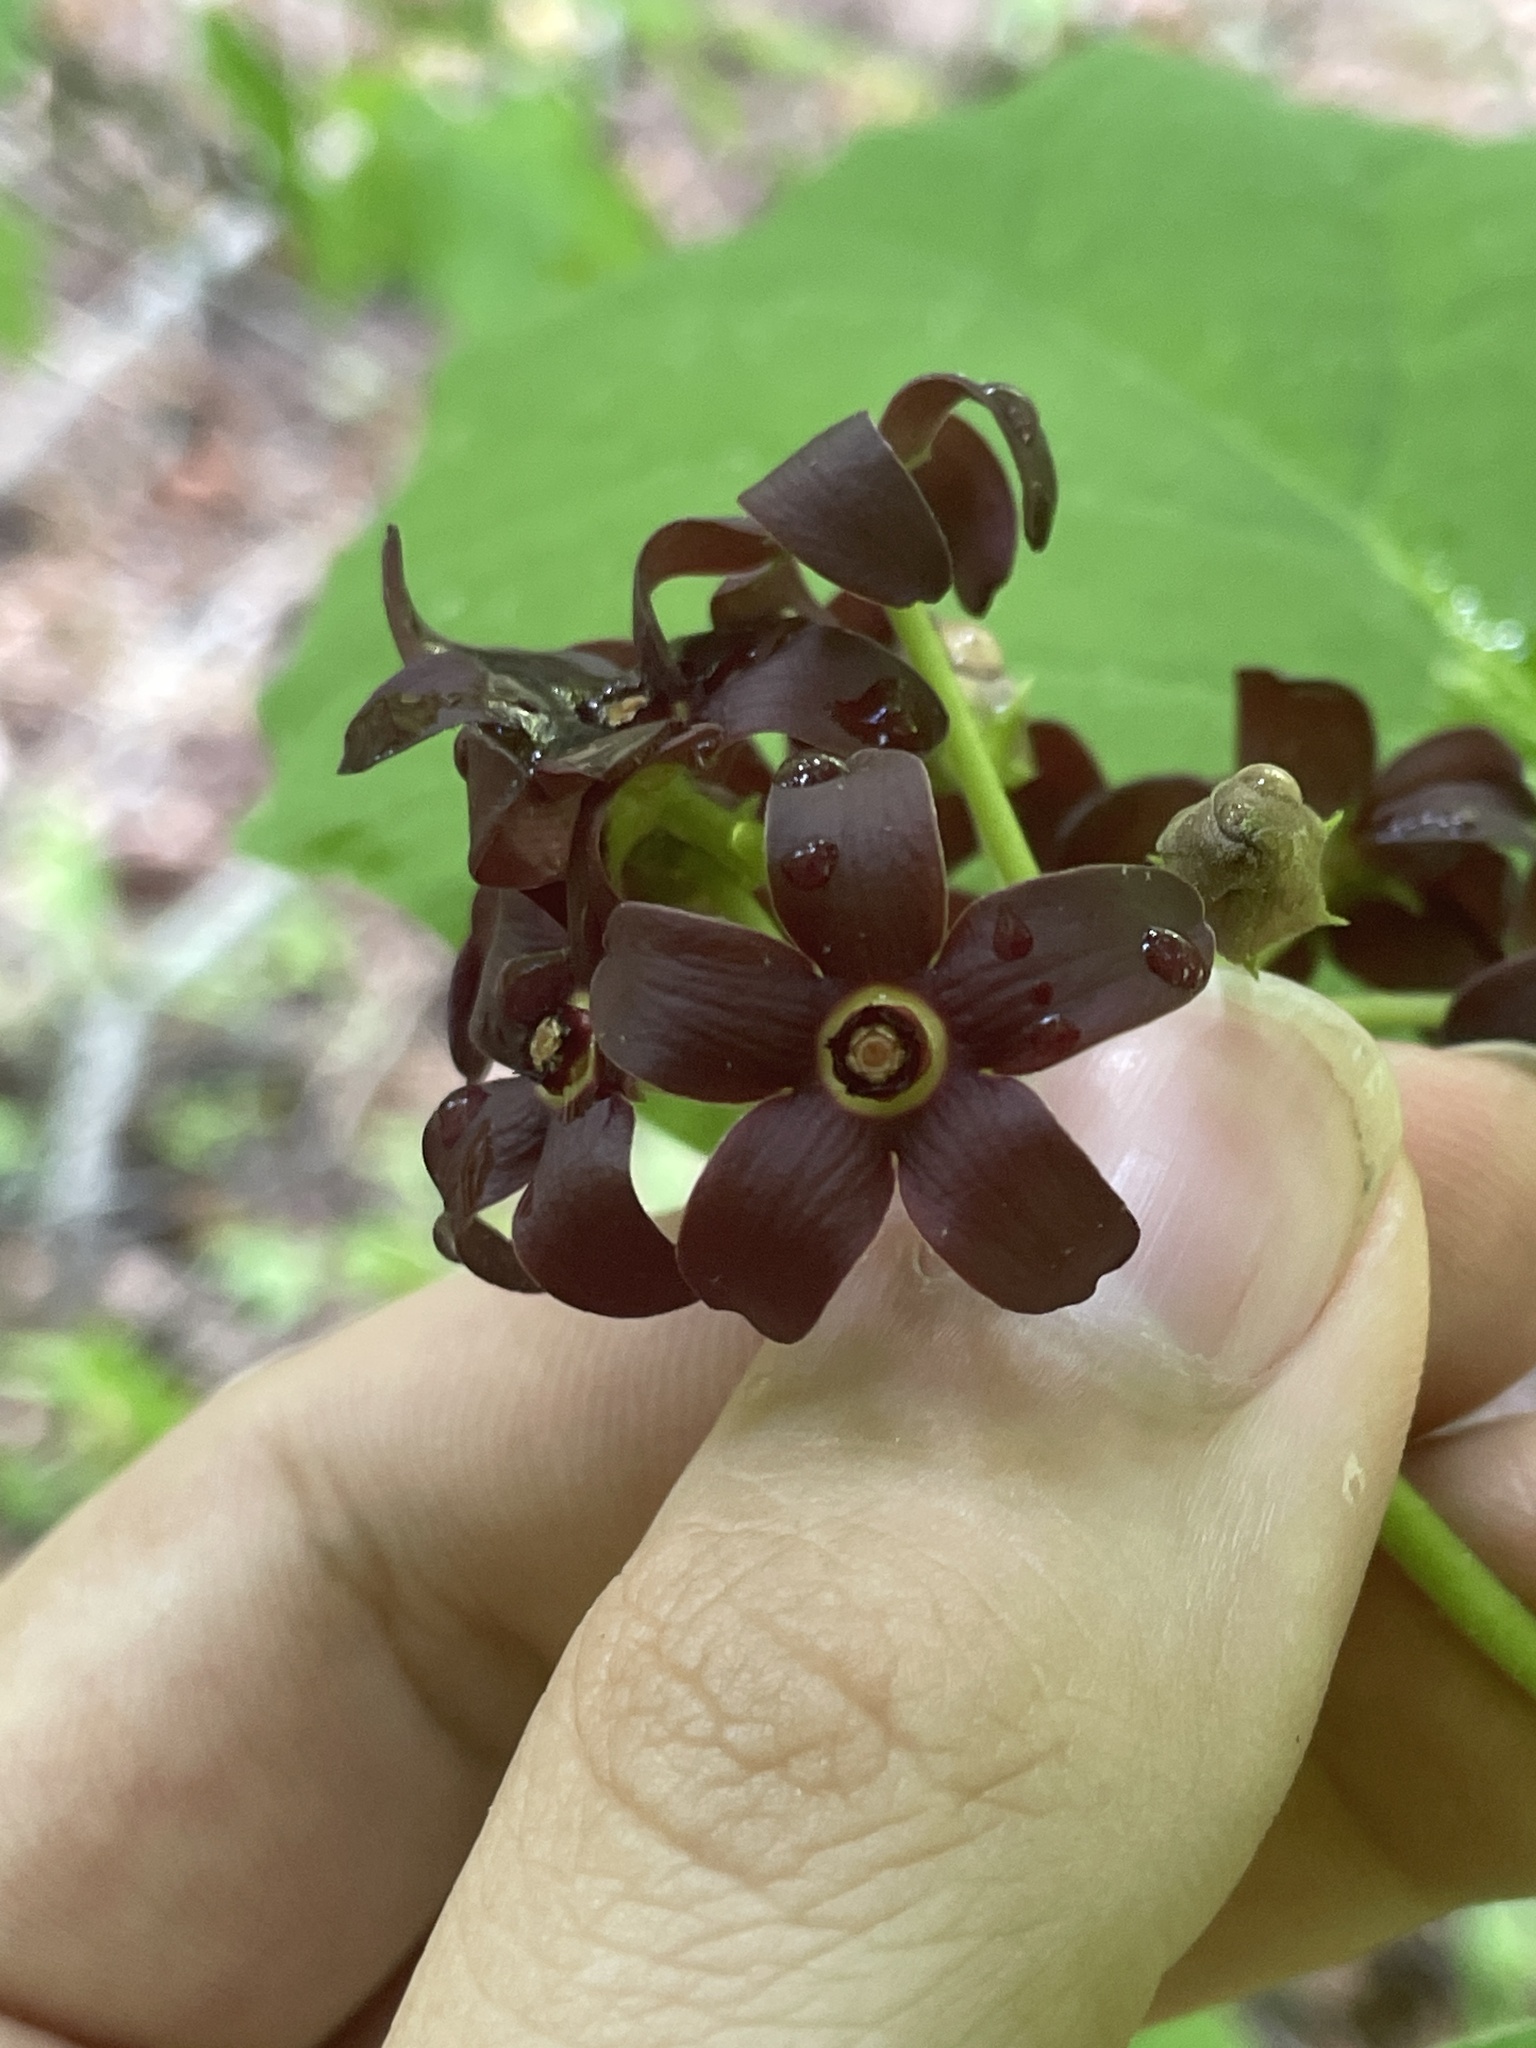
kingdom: Plantae
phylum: Tracheophyta
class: Magnoliopsida
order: Gentianales
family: Apocynaceae
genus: Matelea
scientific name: Matelea carolinensis
